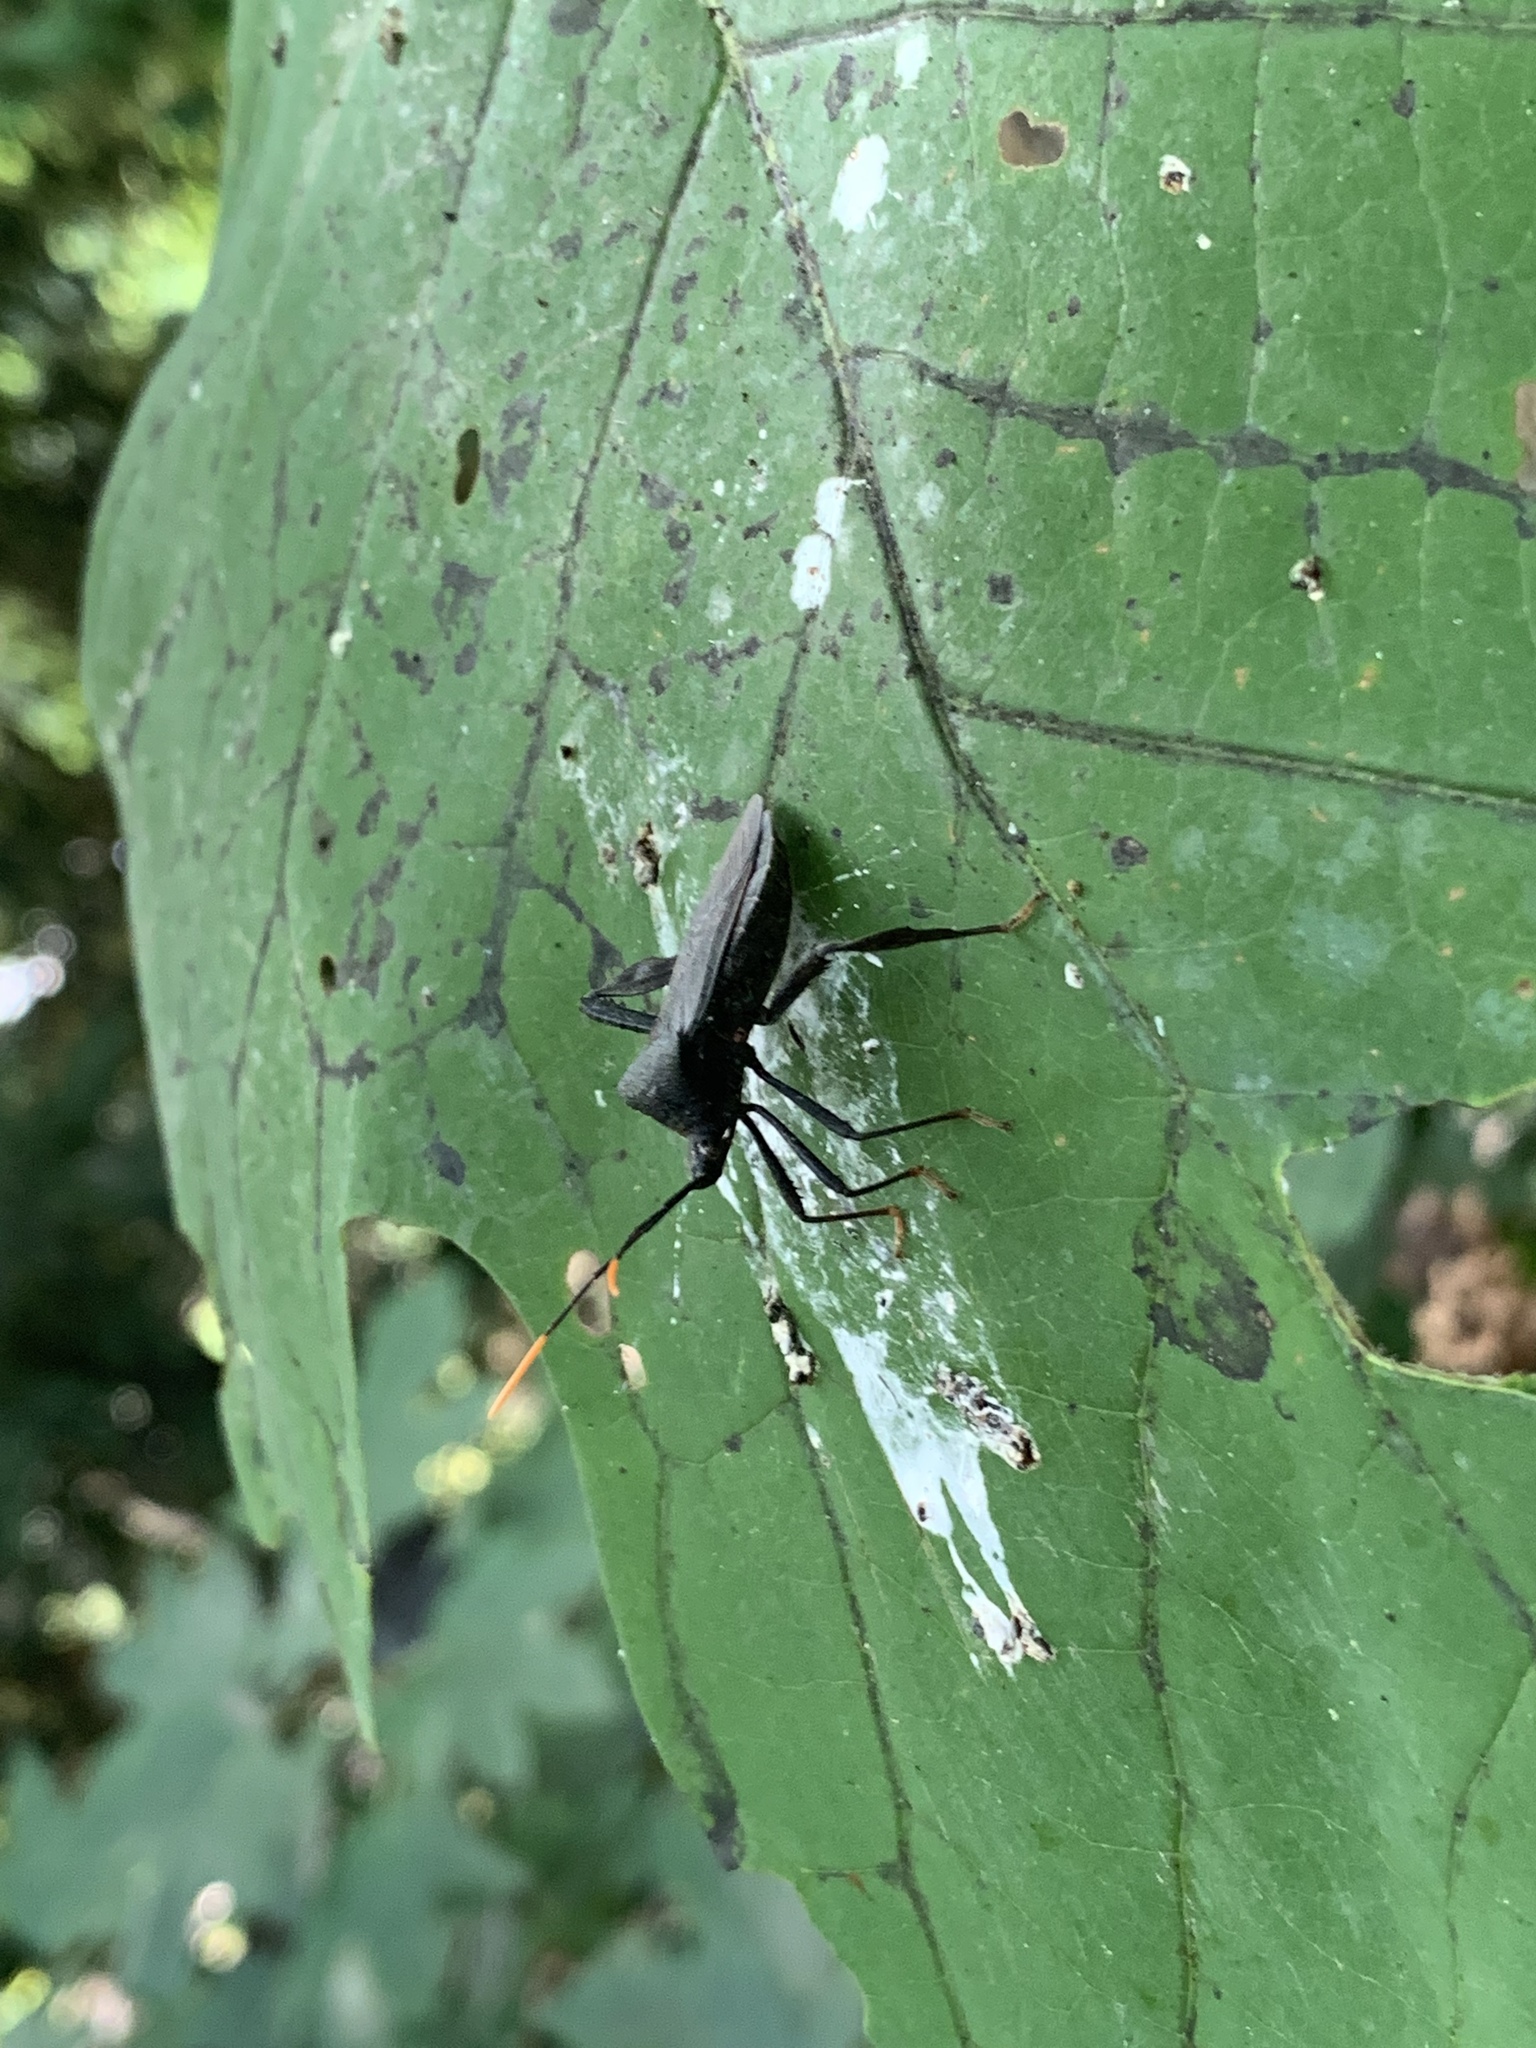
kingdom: Animalia
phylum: Arthropoda
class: Insecta
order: Hemiptera
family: Coreidae
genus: Acanthocephala
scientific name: Acanthocephala terminalis
